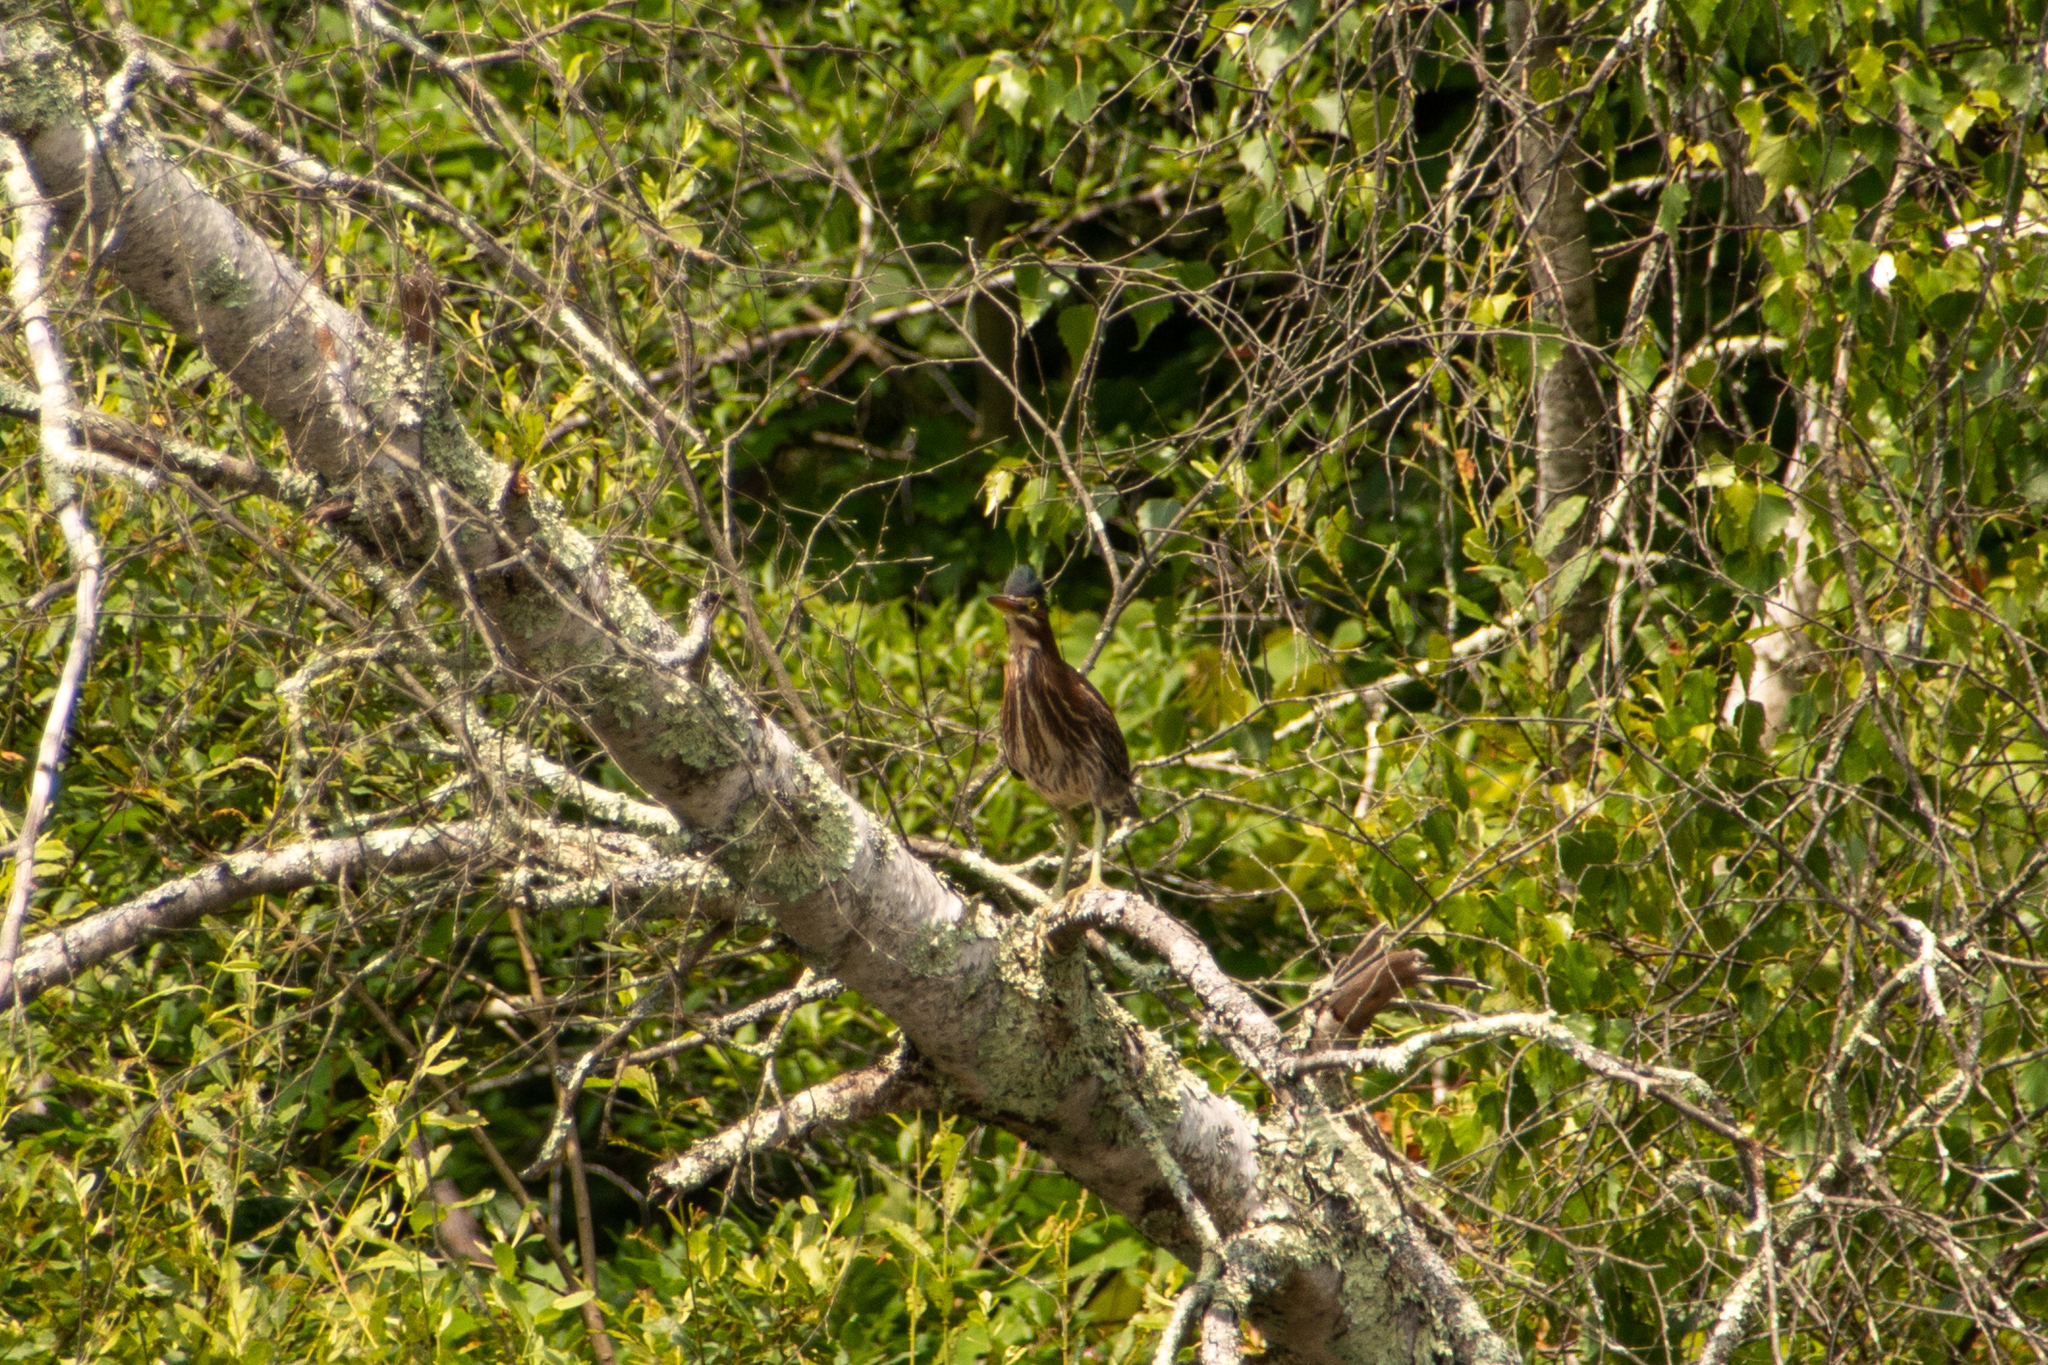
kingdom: Animalia
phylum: Chordata
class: Aves
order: Pelecaniformes
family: Ardeidae
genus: Butorides
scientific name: Butorides virescens
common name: Green heron
